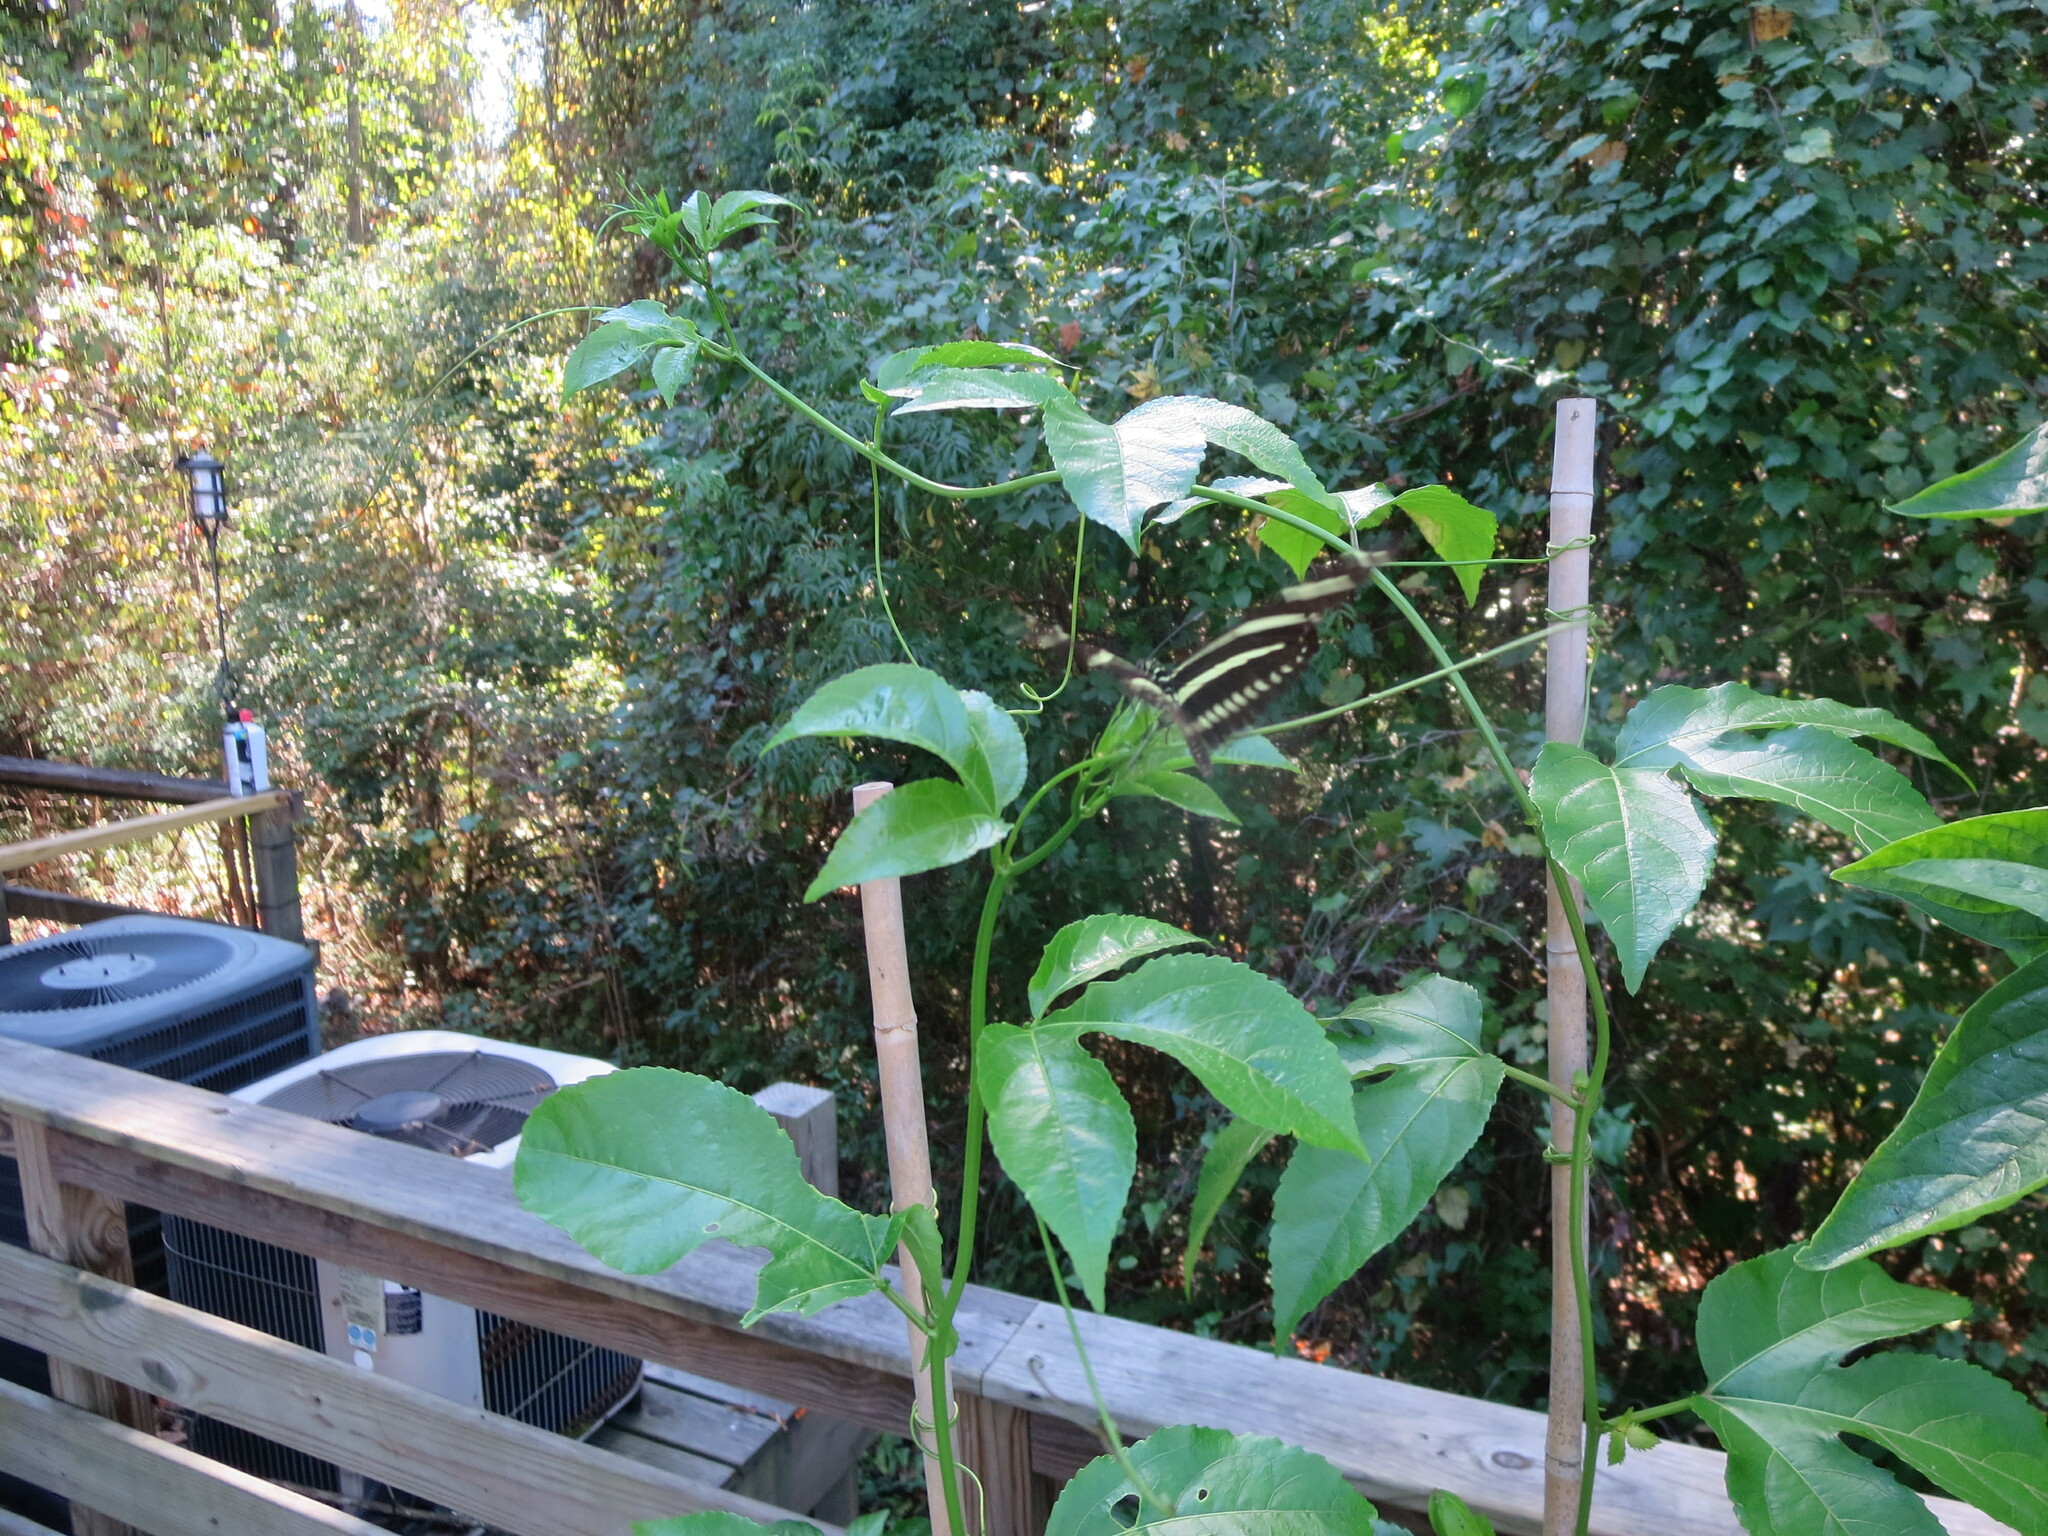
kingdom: Animalia
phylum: Arthropoda
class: Insecta
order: Lepidoptera
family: Nymphalidae
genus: Heliconius
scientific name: Heliconius charithonia
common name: Zebra long wing
